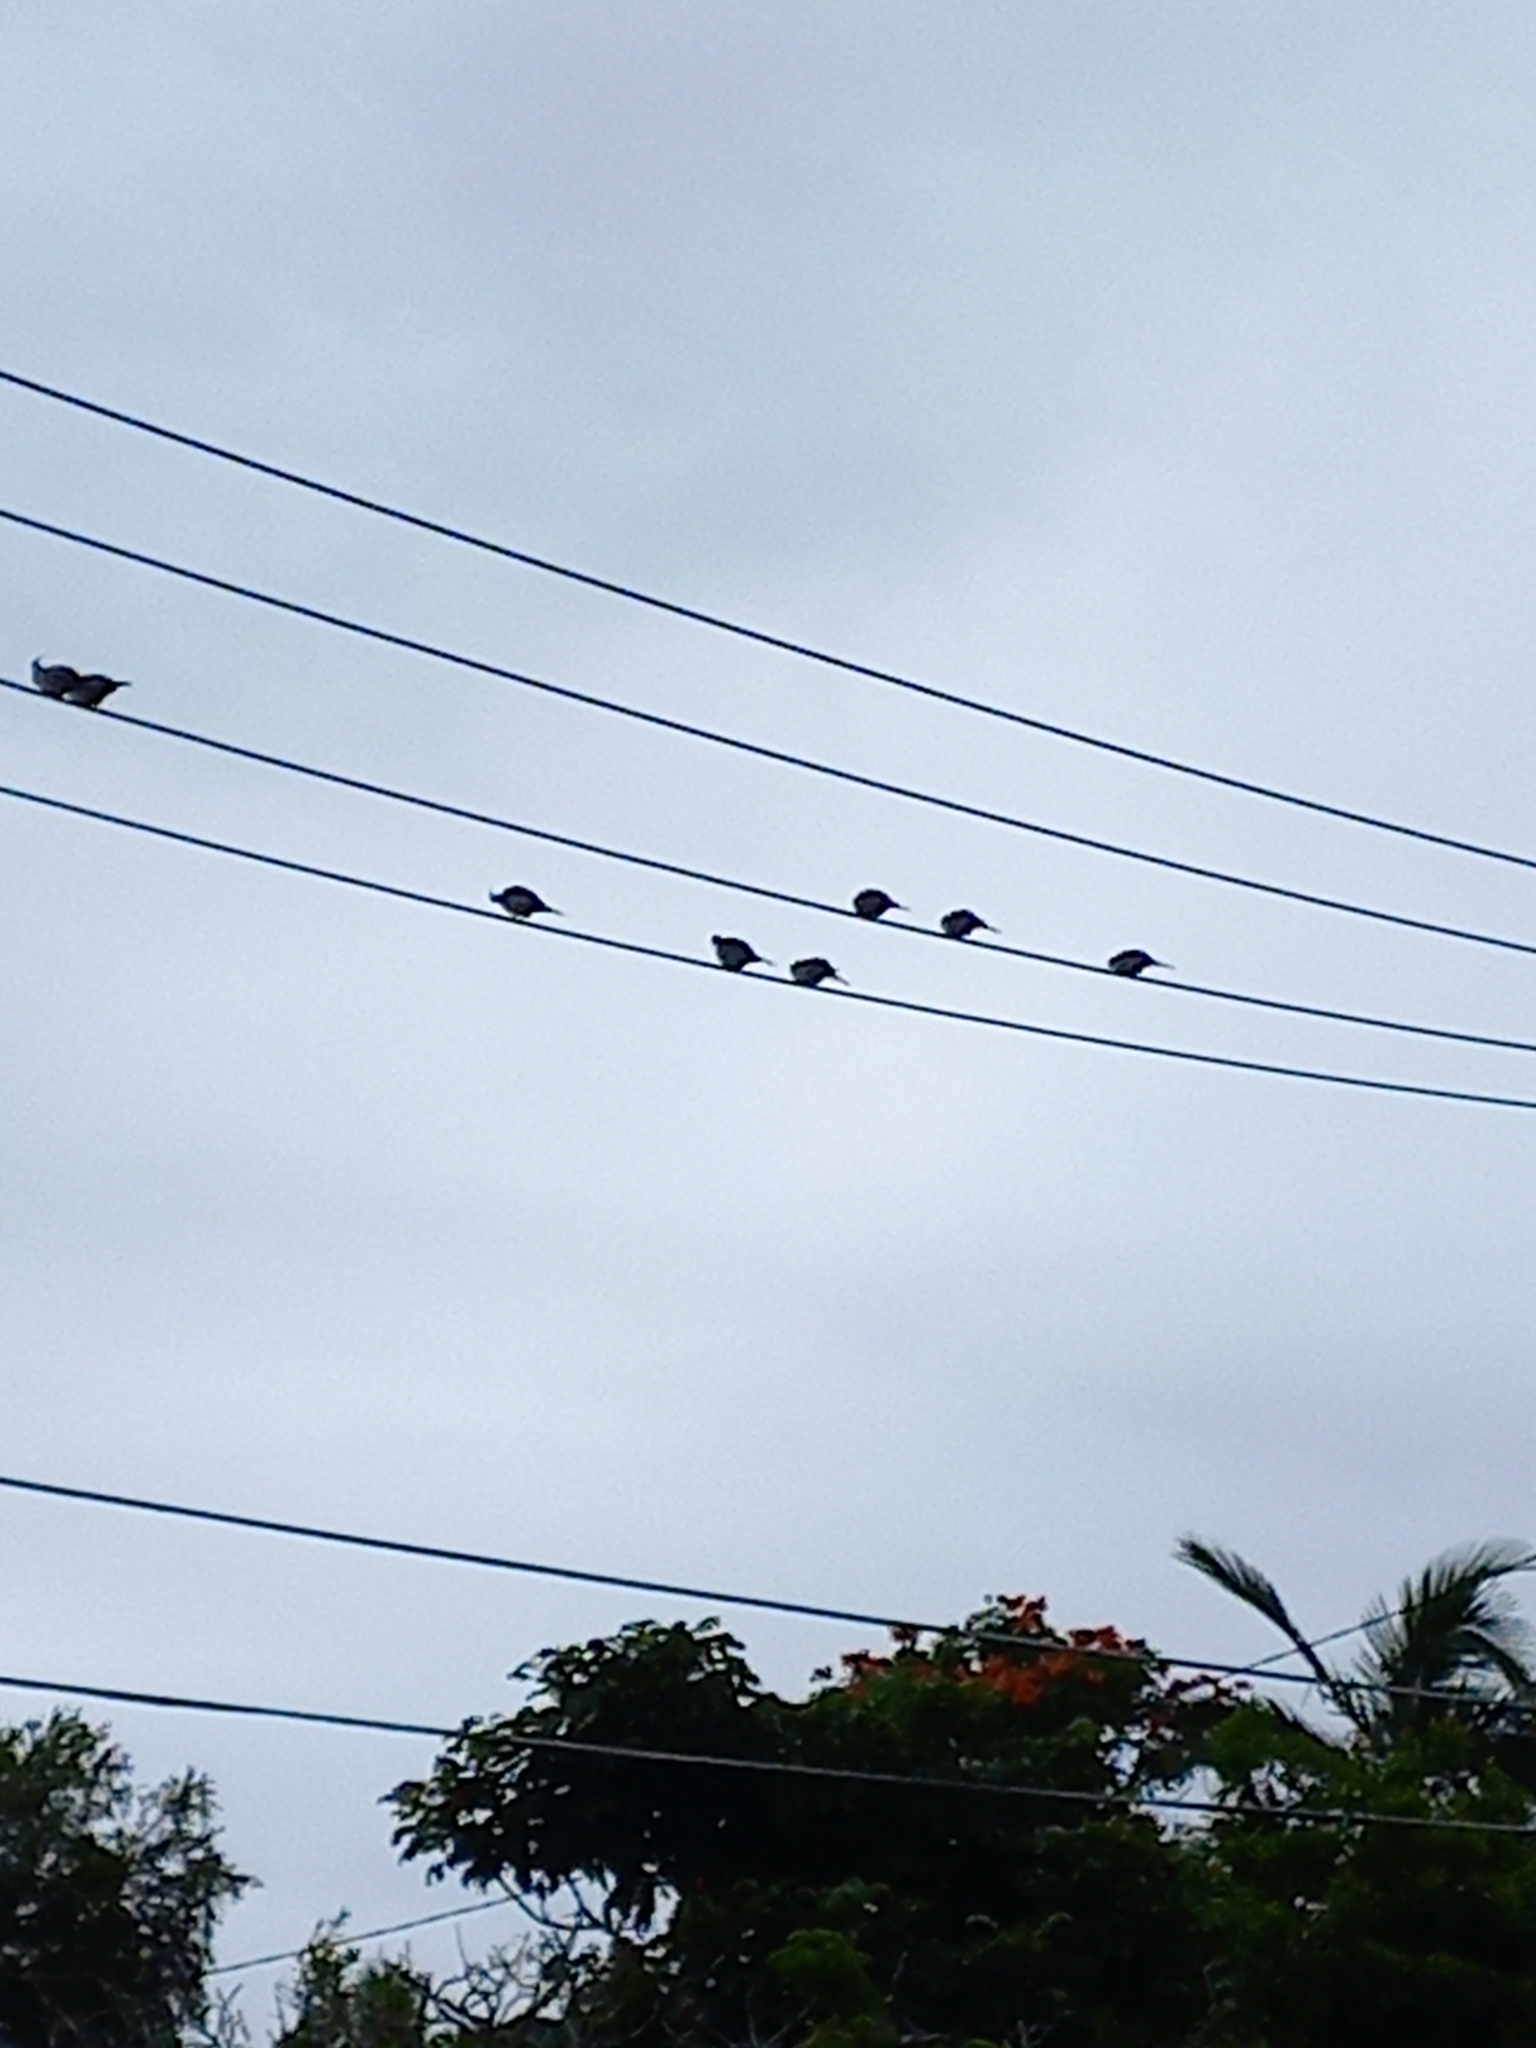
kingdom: Animalia
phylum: Chordata
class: Aves
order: Columbiformes
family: Columbidae
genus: Ocyphaps
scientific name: Ocyphaps lophotes
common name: Crested pigeon
